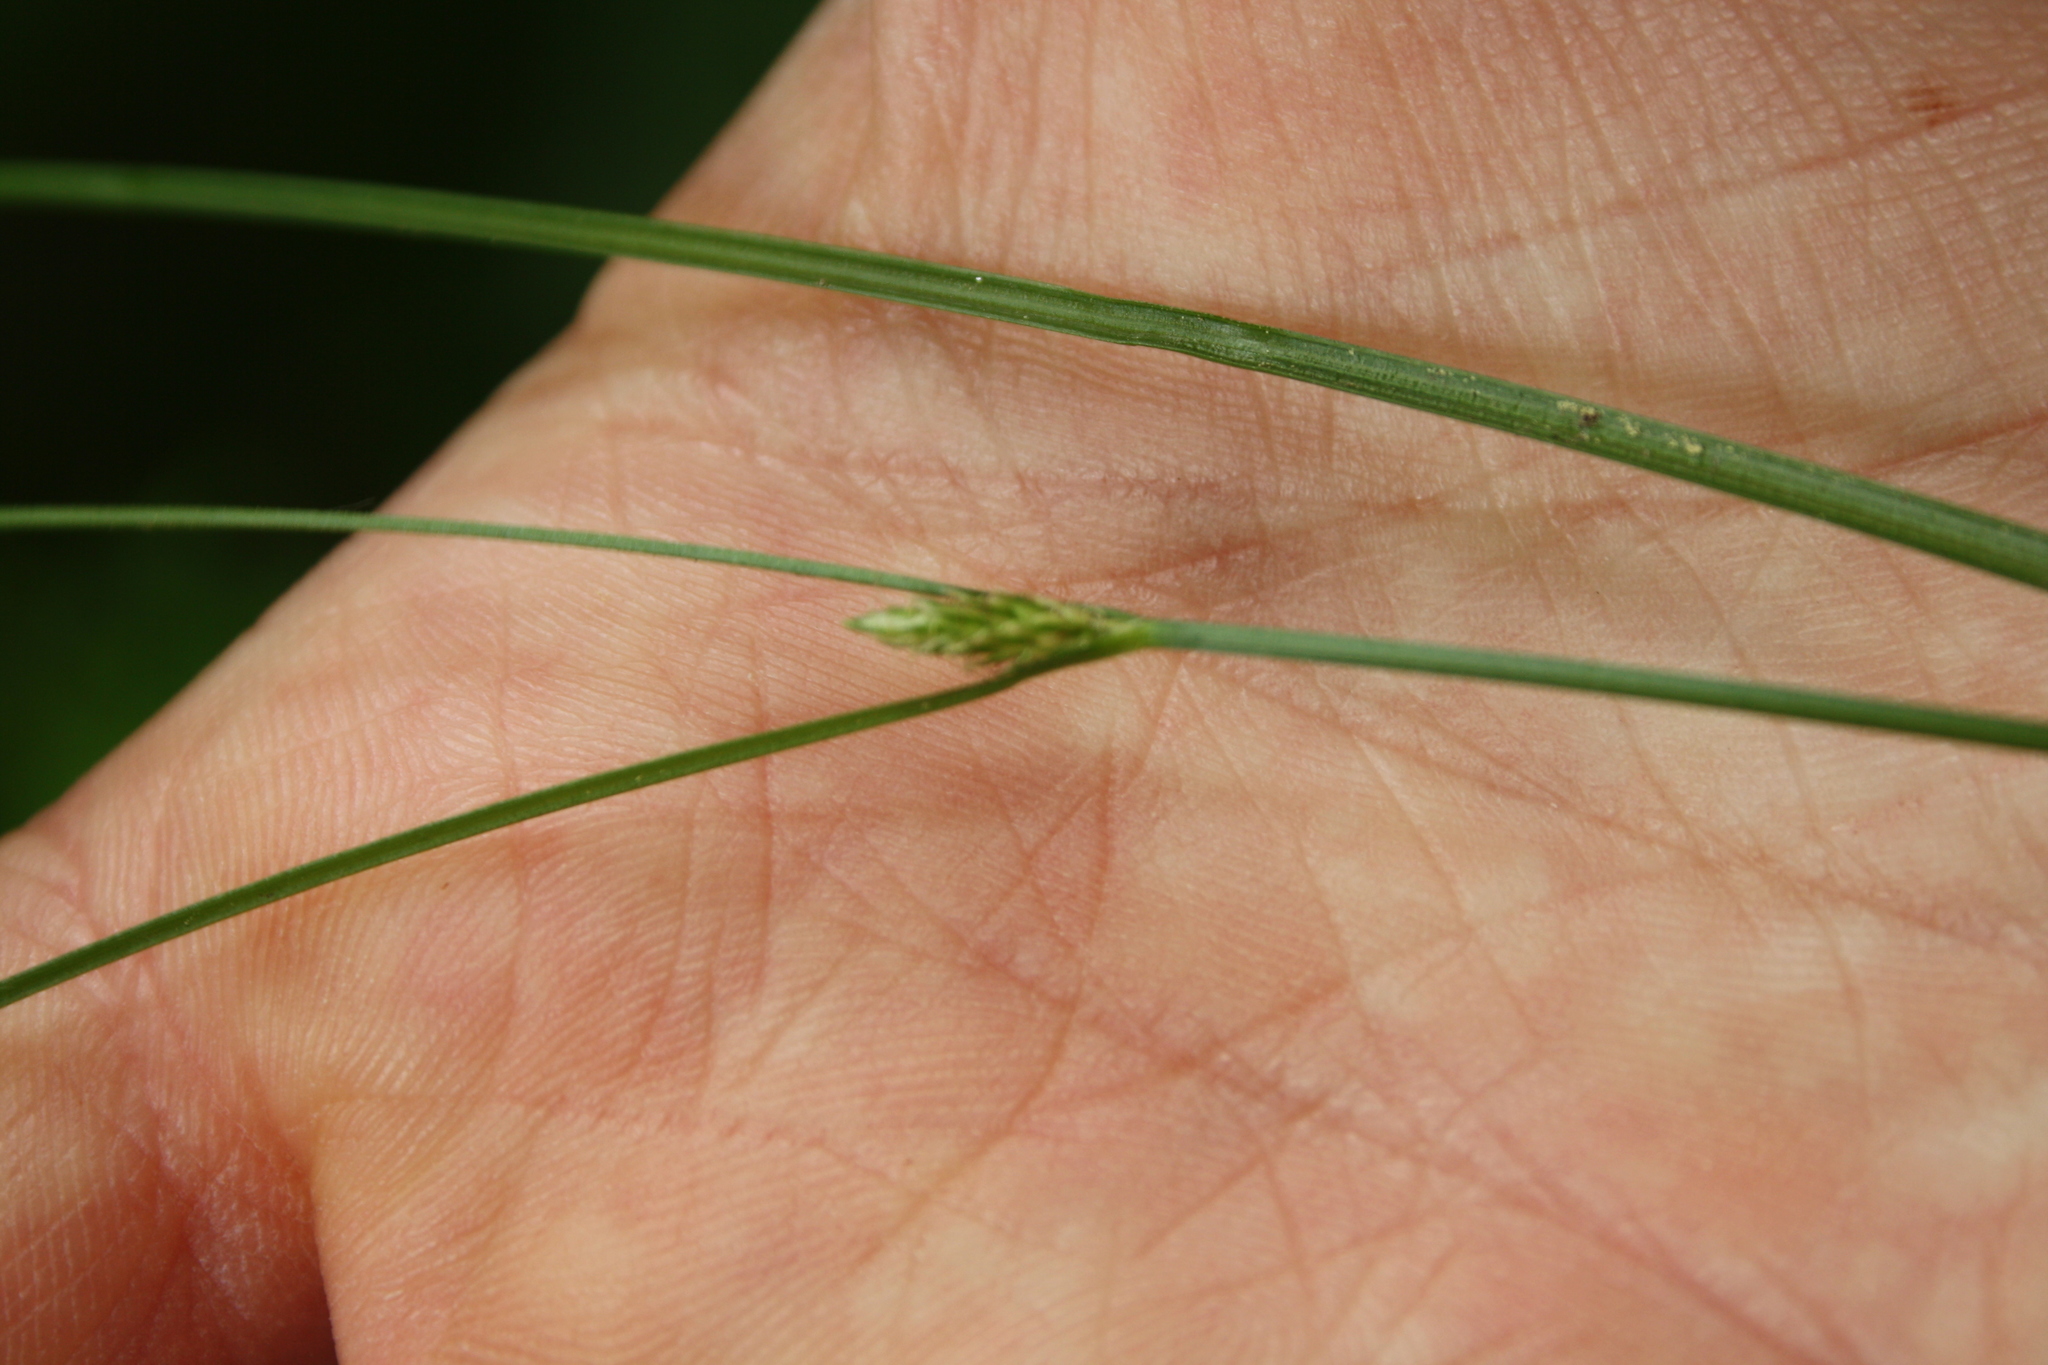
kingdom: Plantae
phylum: Tracheophyta
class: Liliopsida
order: Poales
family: Cyperaceae
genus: Carex
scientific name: Carex remota
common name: Remote sedge
